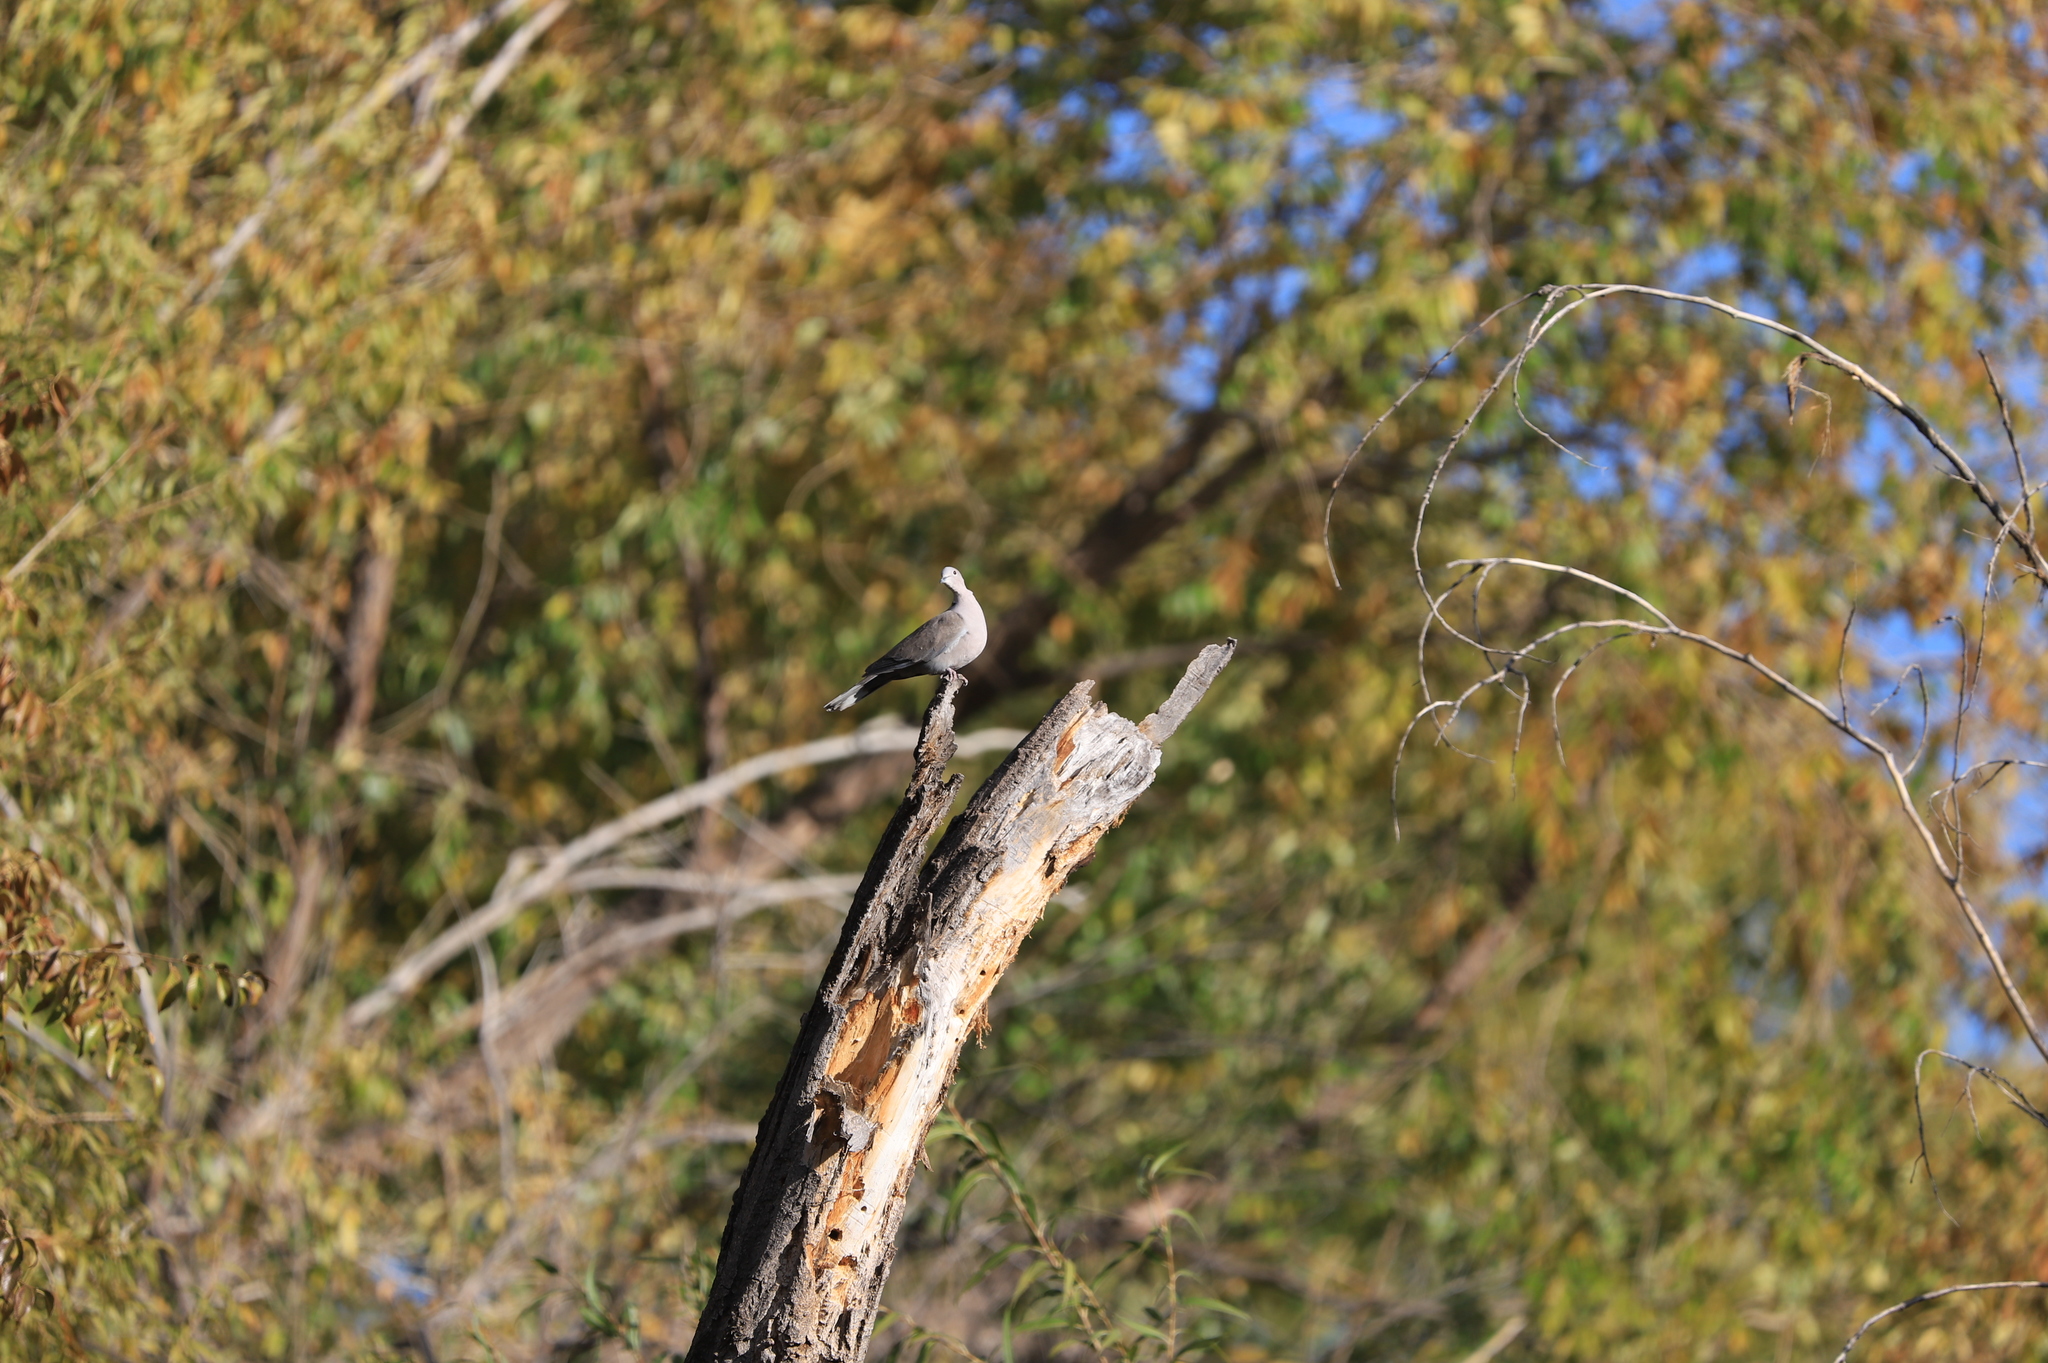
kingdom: Animalia
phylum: Chordata
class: Aves
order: Columbiformes
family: Columbidae
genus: Streptopelia
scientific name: Streptopelia decaocto
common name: Eurasian collared dove
